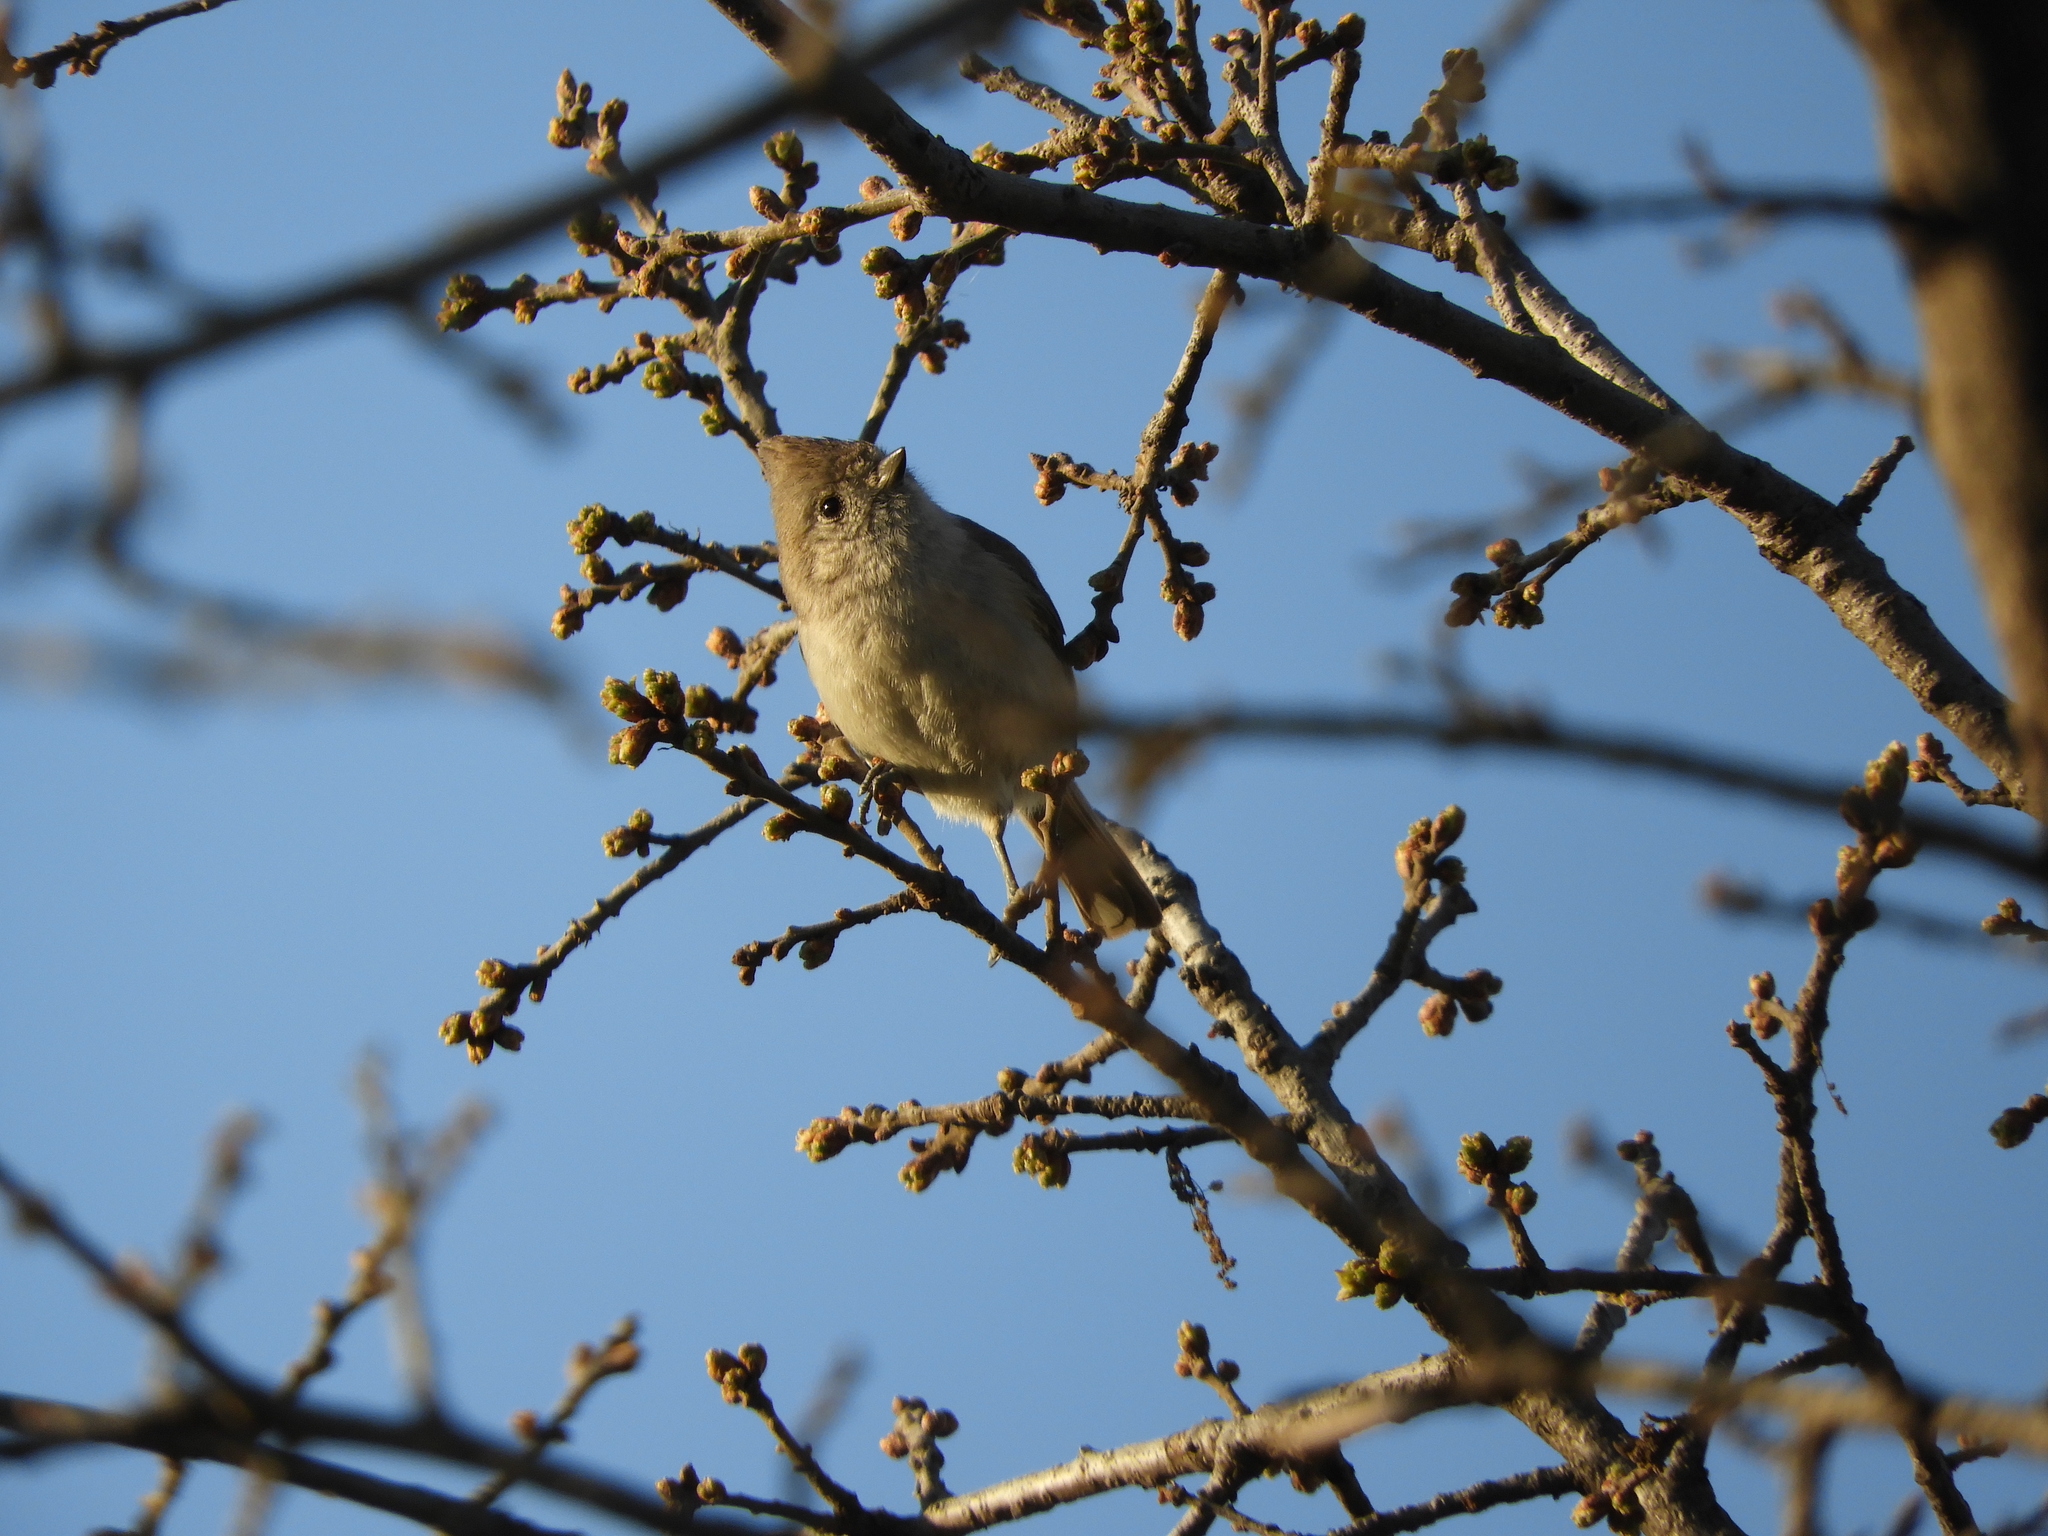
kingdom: Animalia
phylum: Chordata
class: Aves
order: Passeriformes
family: Paridae
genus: Baeolophus
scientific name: Baeolophus inornatus
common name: Oak titmouse
